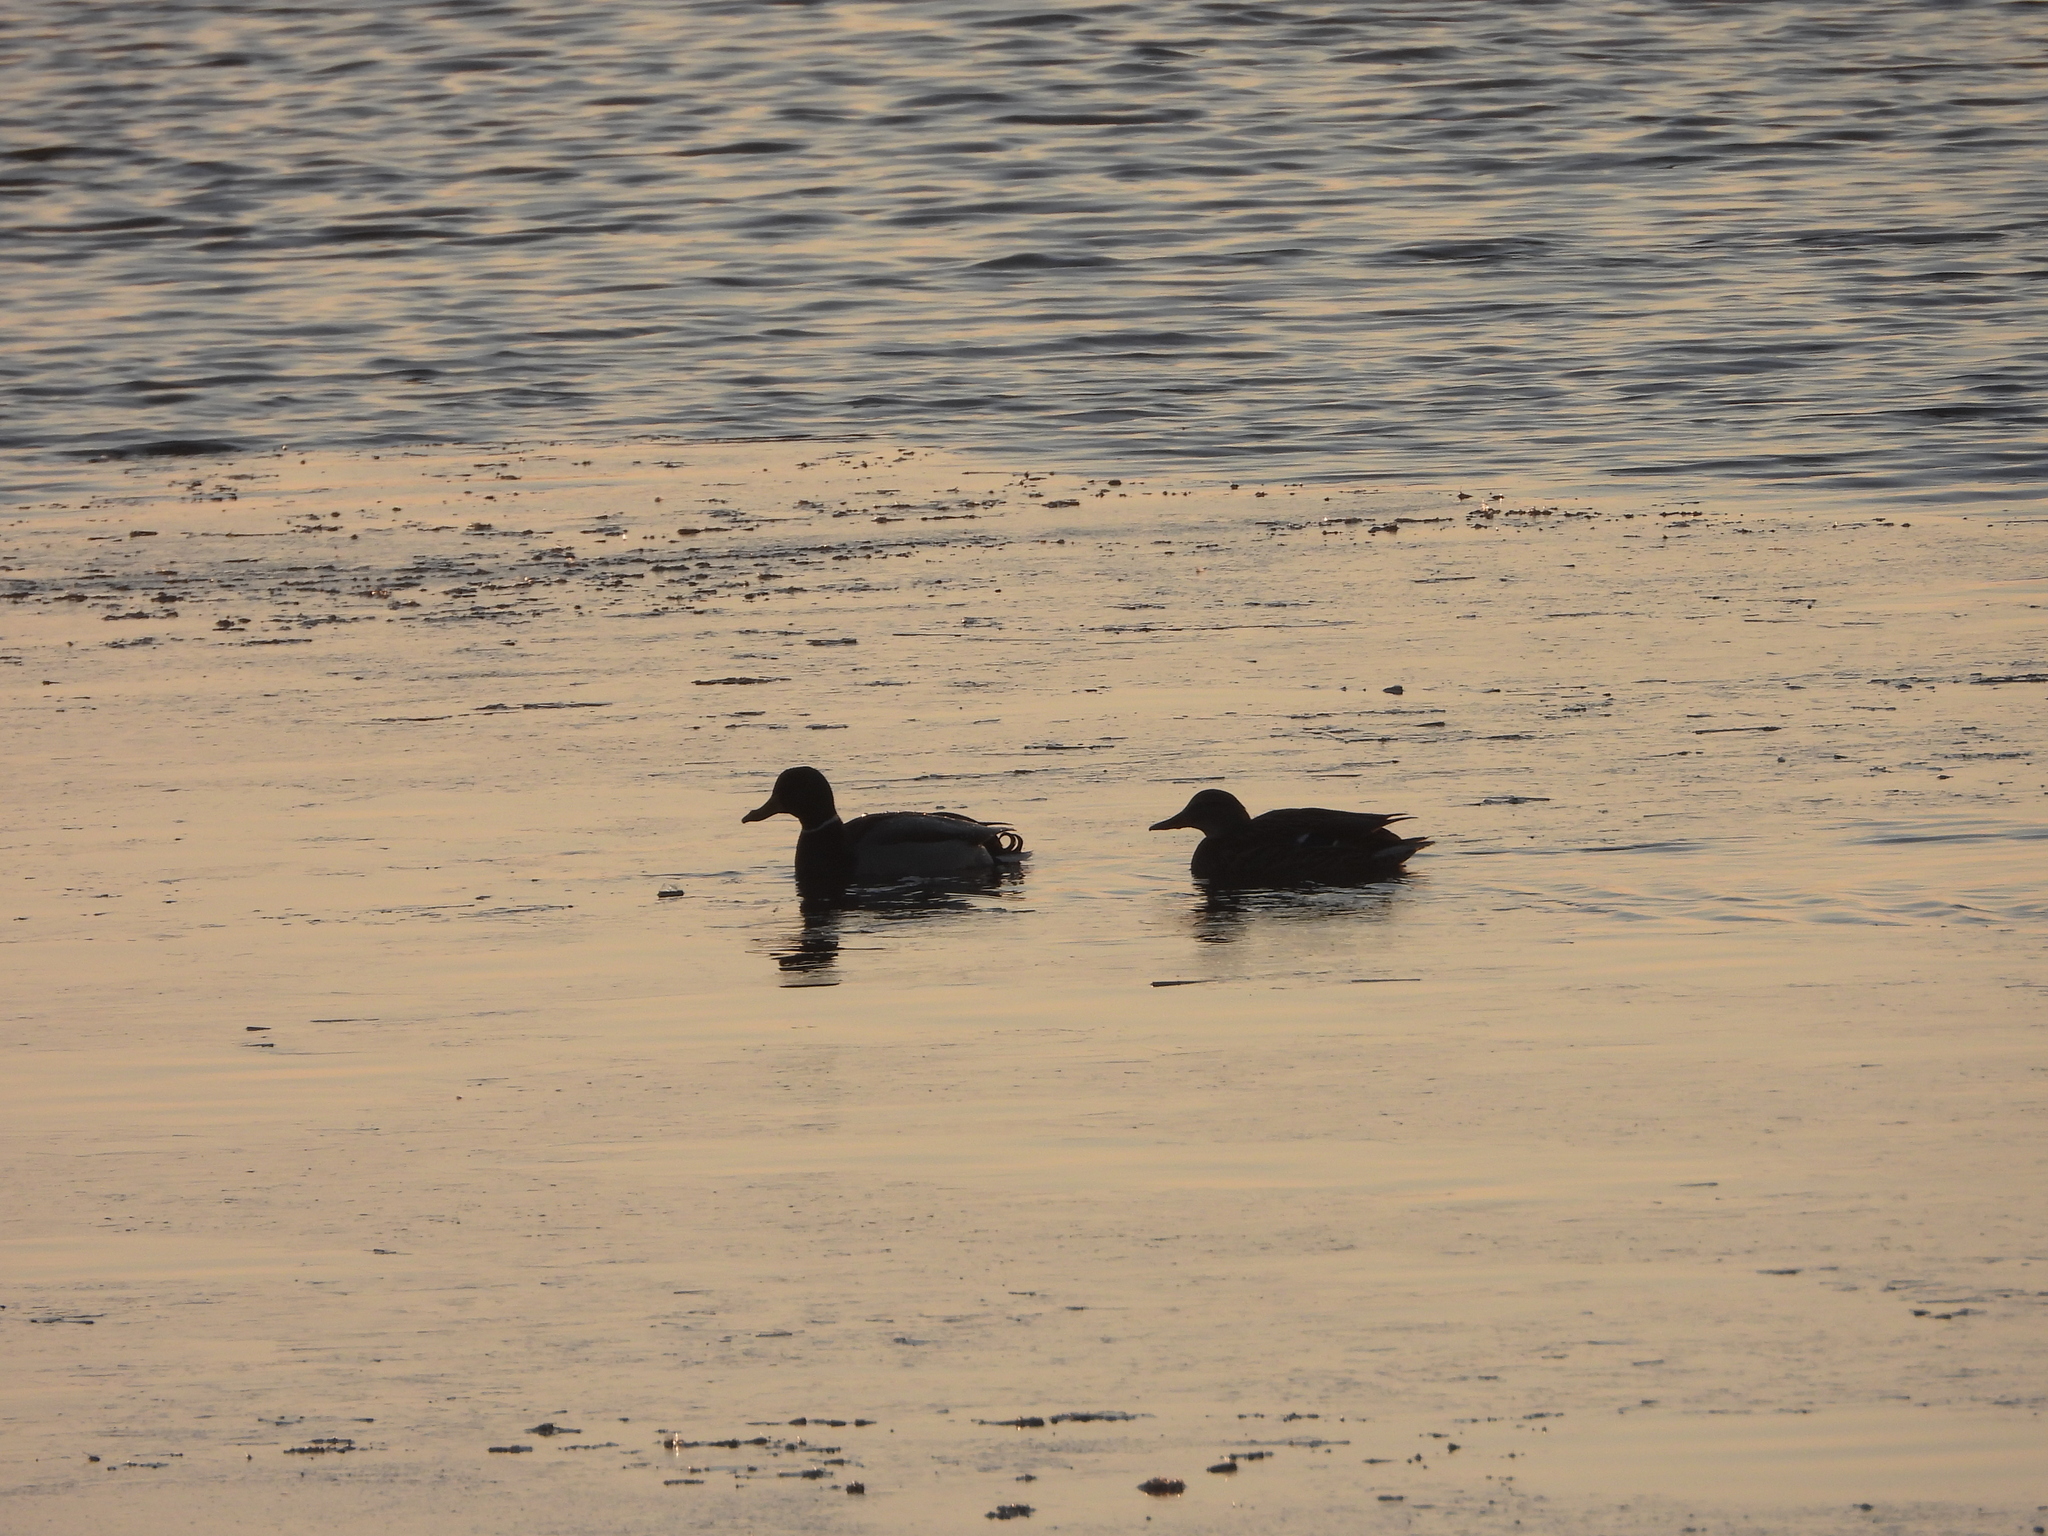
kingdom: Animalia
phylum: Chordata
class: Aves
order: Anseriformes
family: Anatidae
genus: Anas
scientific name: Anas platyrhynchos
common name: Mallard
